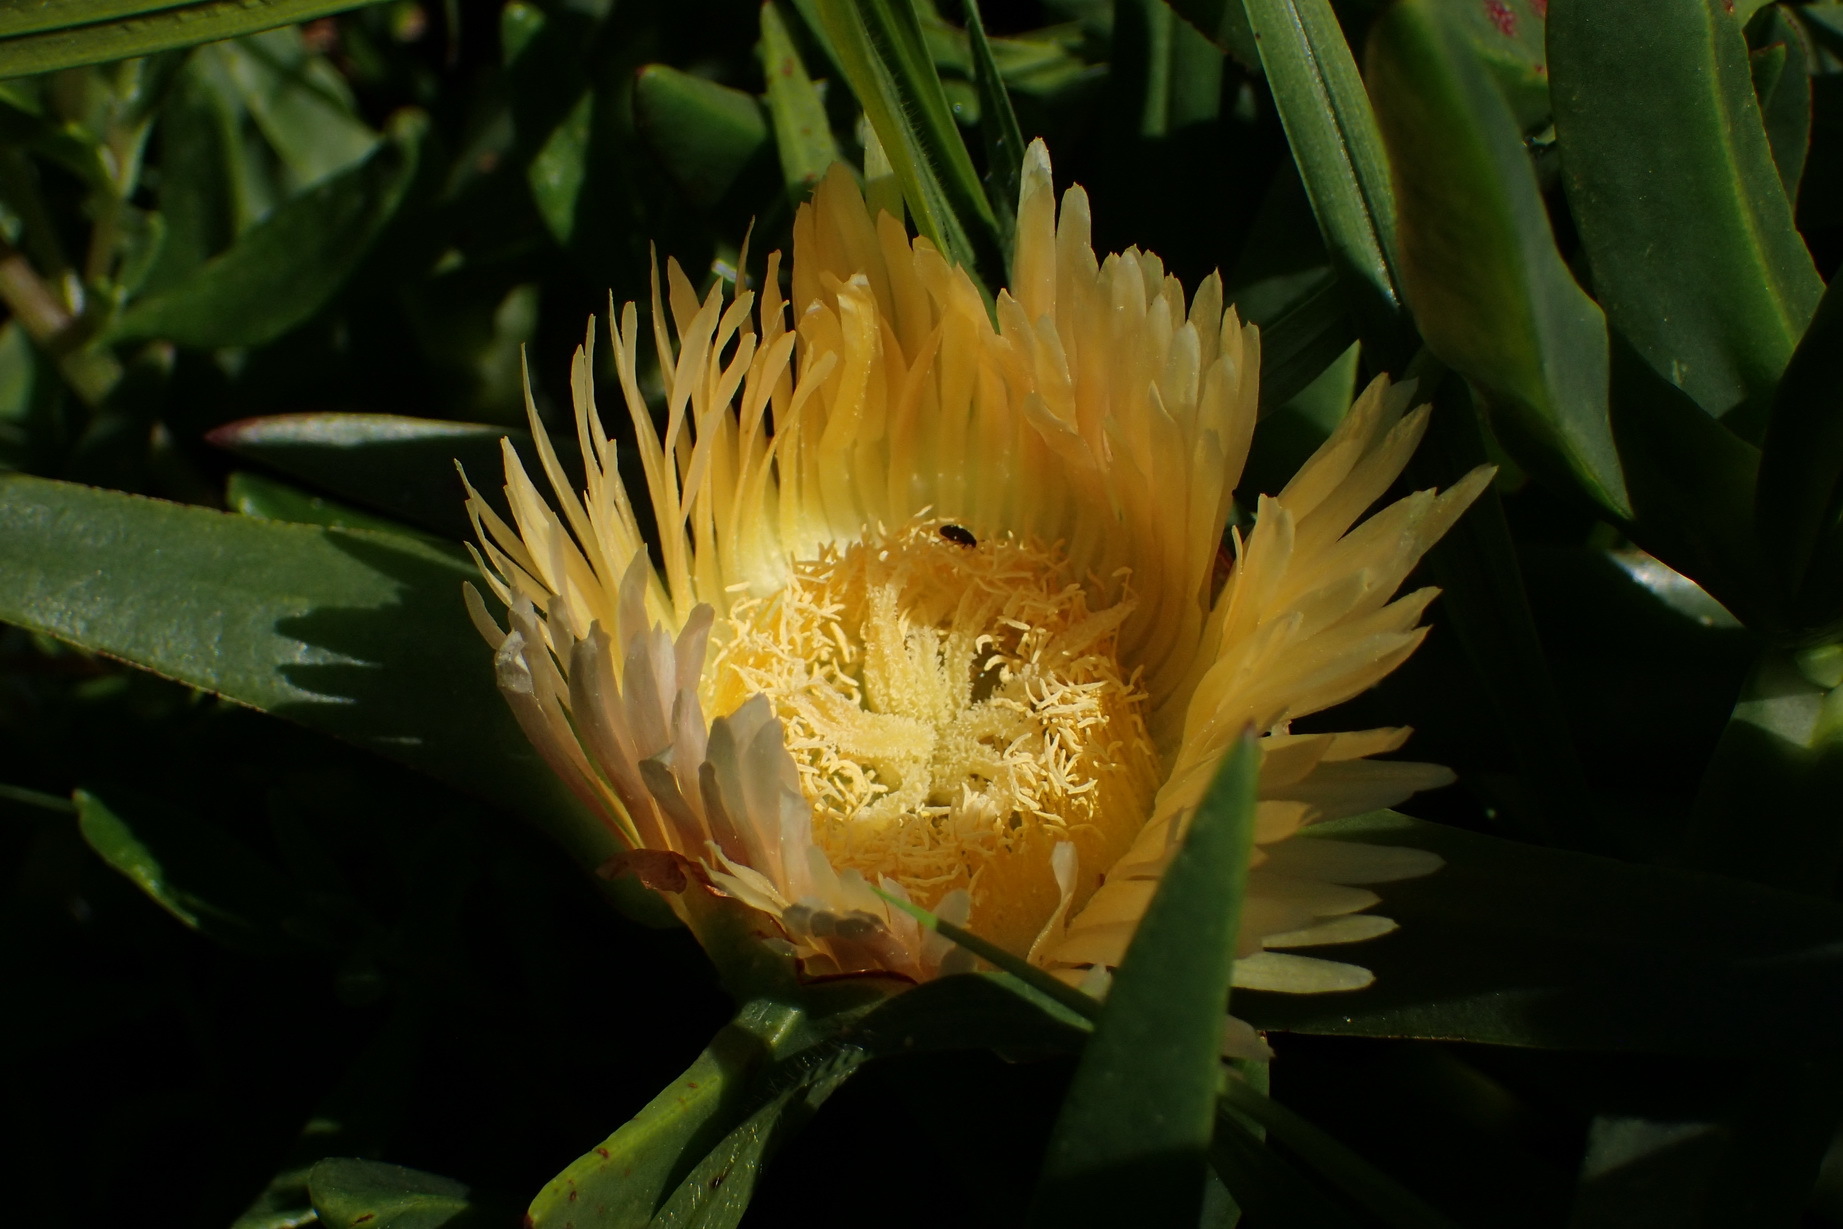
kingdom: Plantae
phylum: Tracheophyta
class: Magnoliopsida
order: Caryophyllales
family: Aizoaceae
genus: Carpobrotus
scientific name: Carpobrotus edulis
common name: Hottentot-fig
